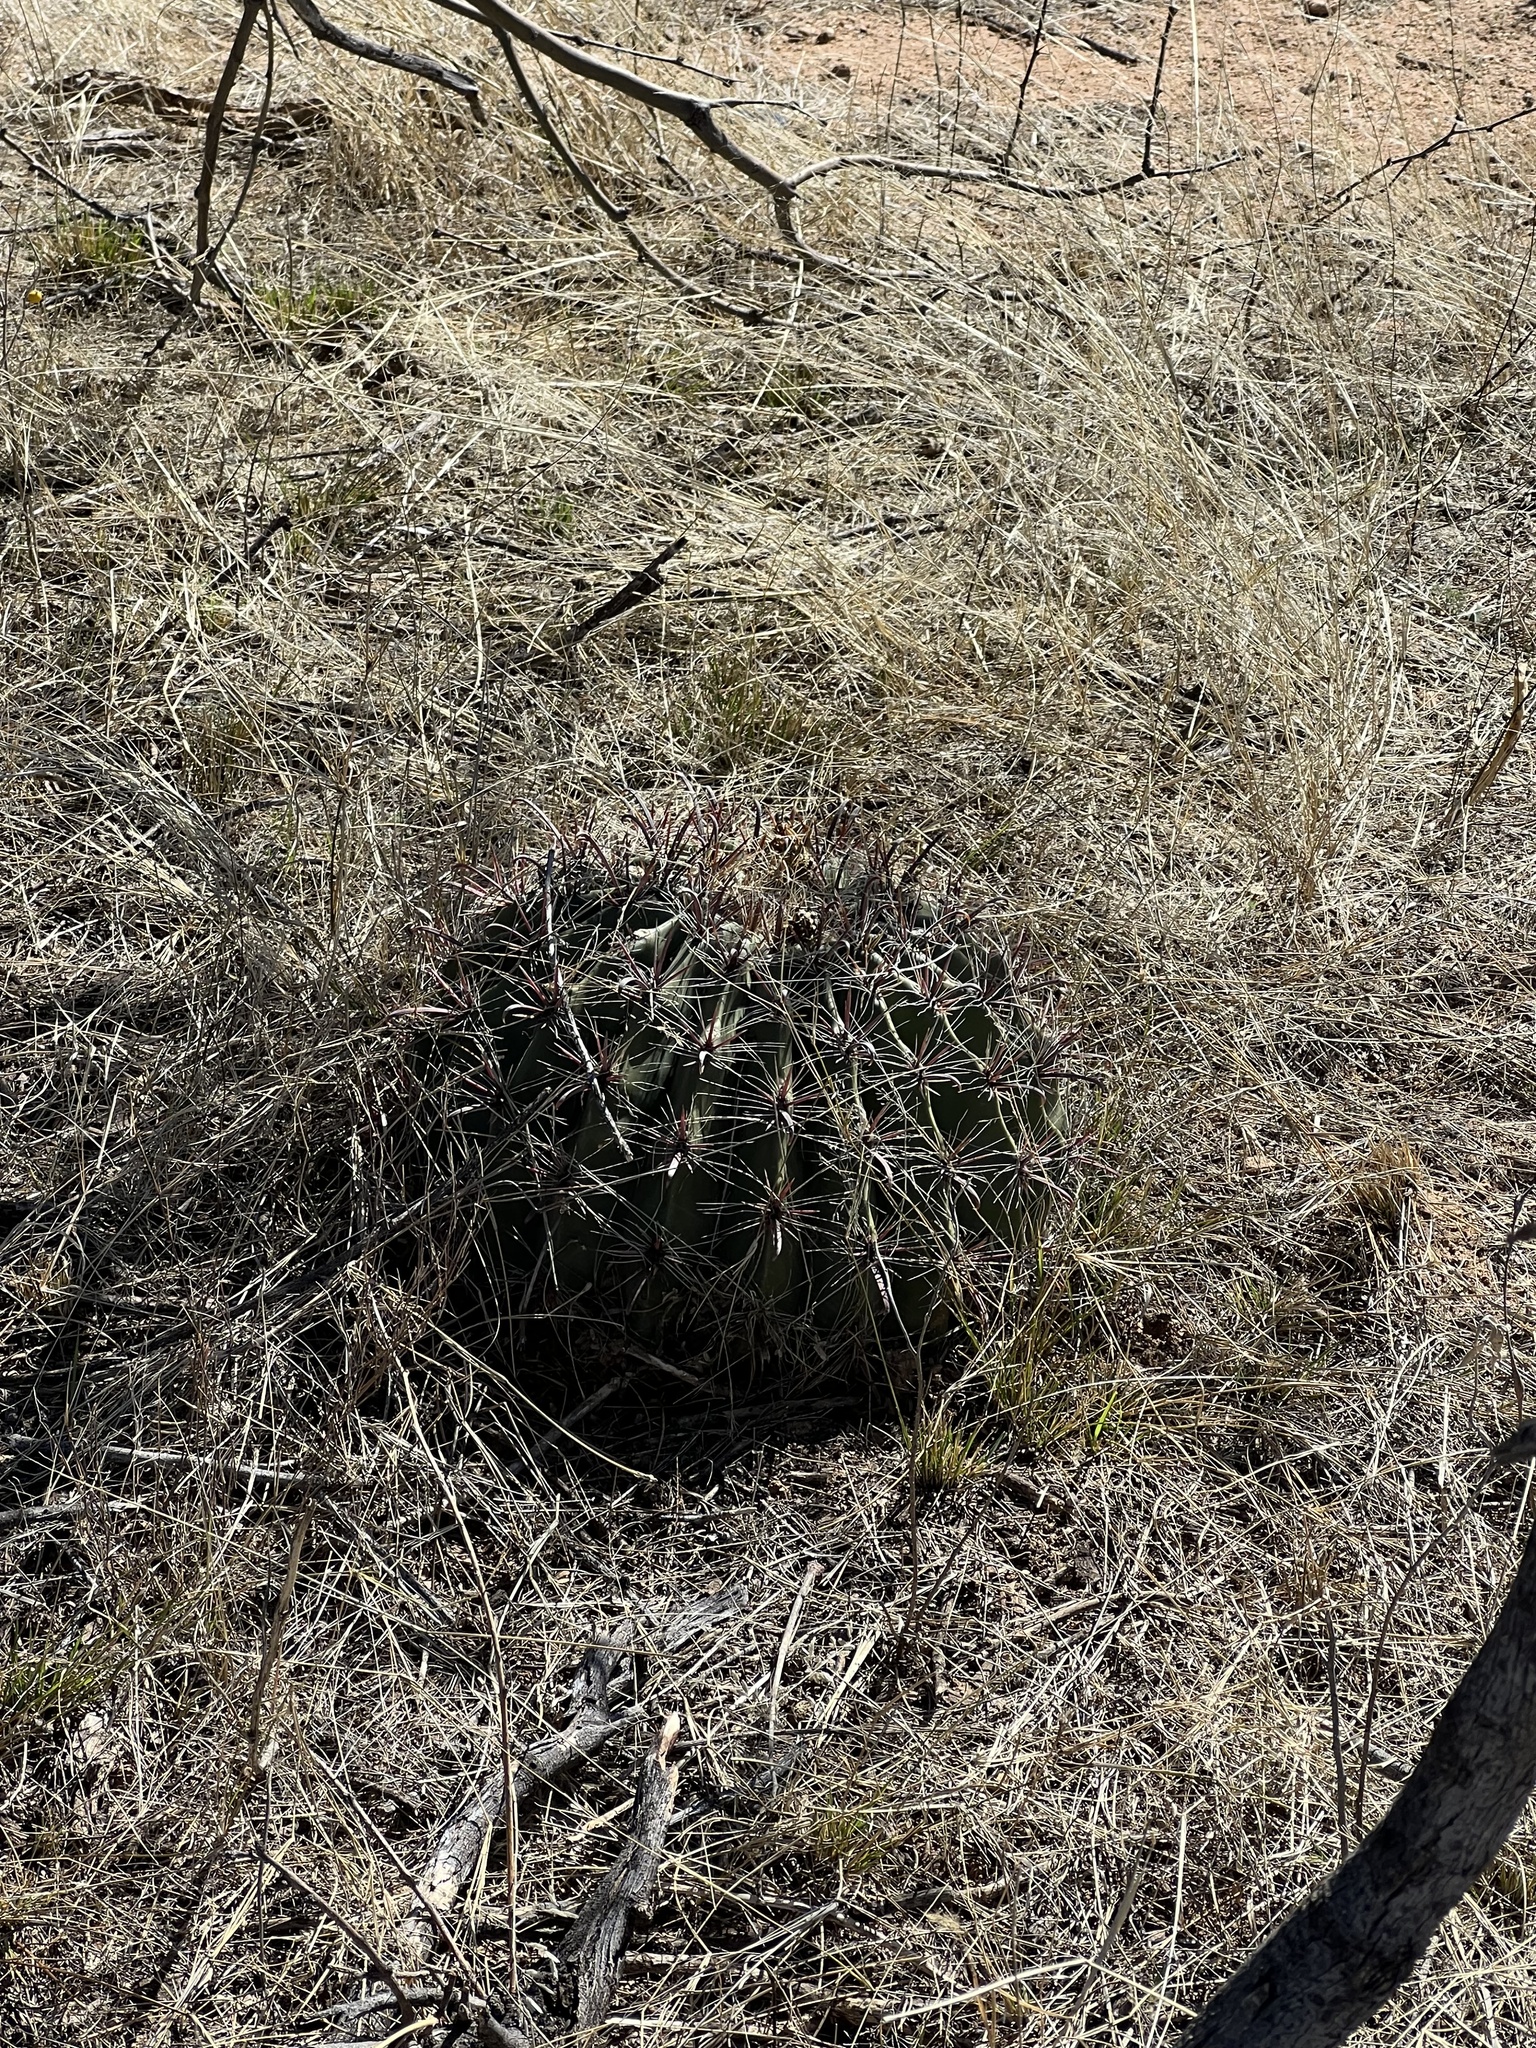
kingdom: Plantae
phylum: Tracheophyta
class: Magnoliopsida
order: Caryophyllales
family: Cactaceae
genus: Ferocactus
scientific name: Ferocactus wislizeni
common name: Candy barrel cactus
